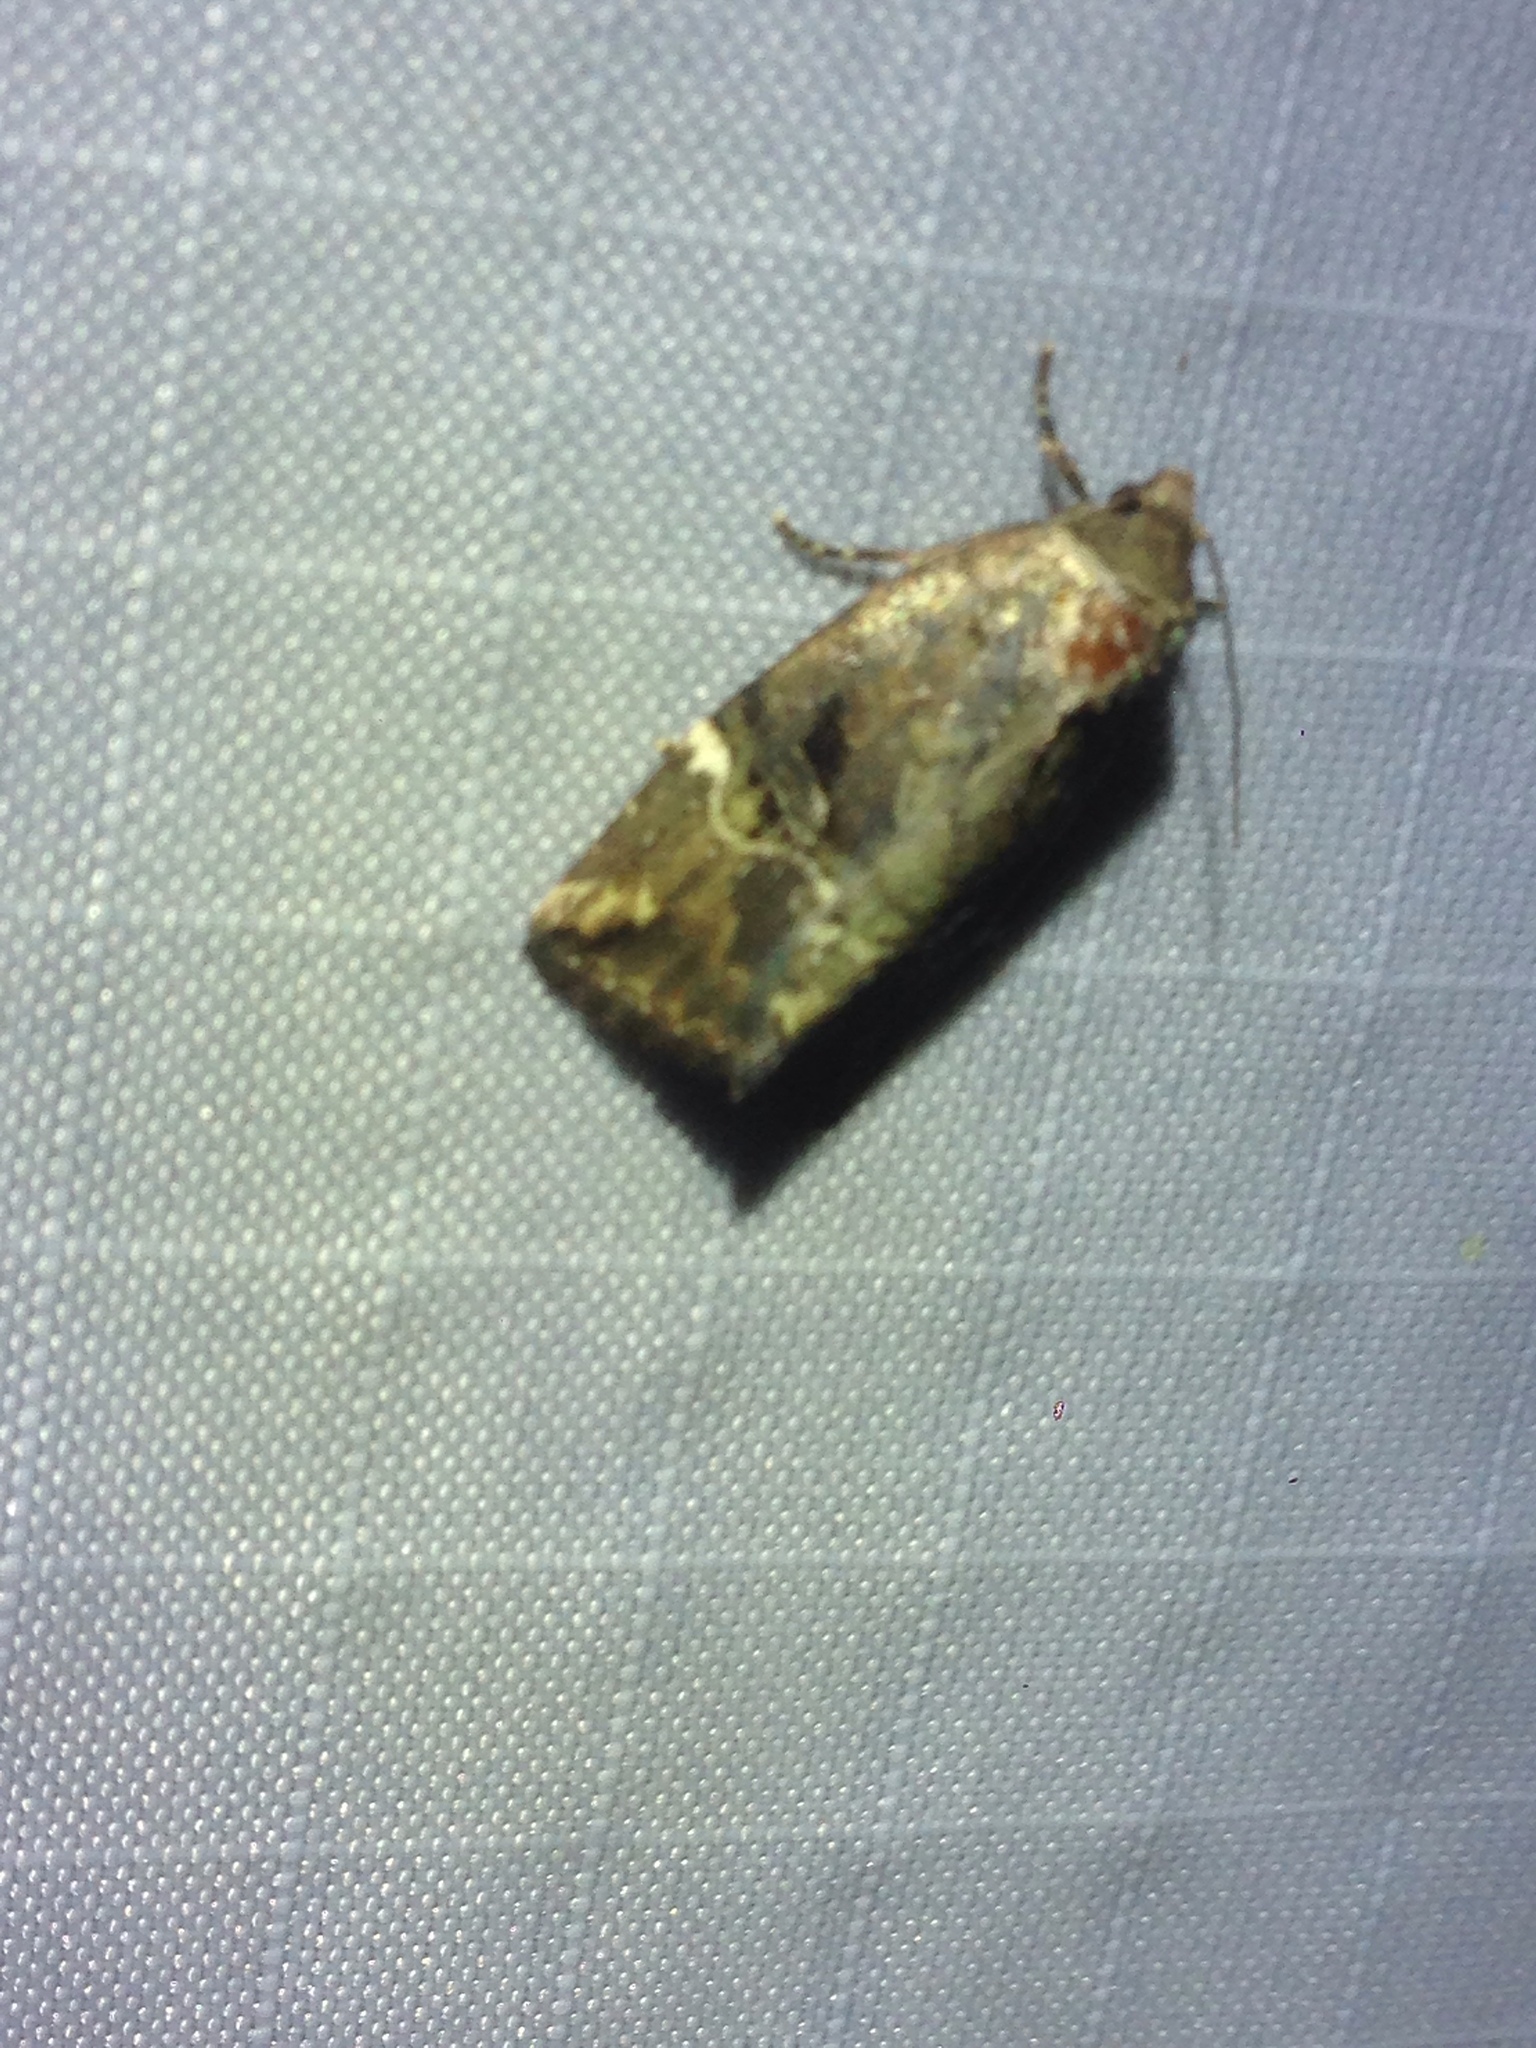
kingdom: Animalia
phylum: Arthropoda
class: Insecta
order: Lepidoptera
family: Noctuidae
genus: Elaphria
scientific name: Elaphria versicolor
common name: Fir harlequin
